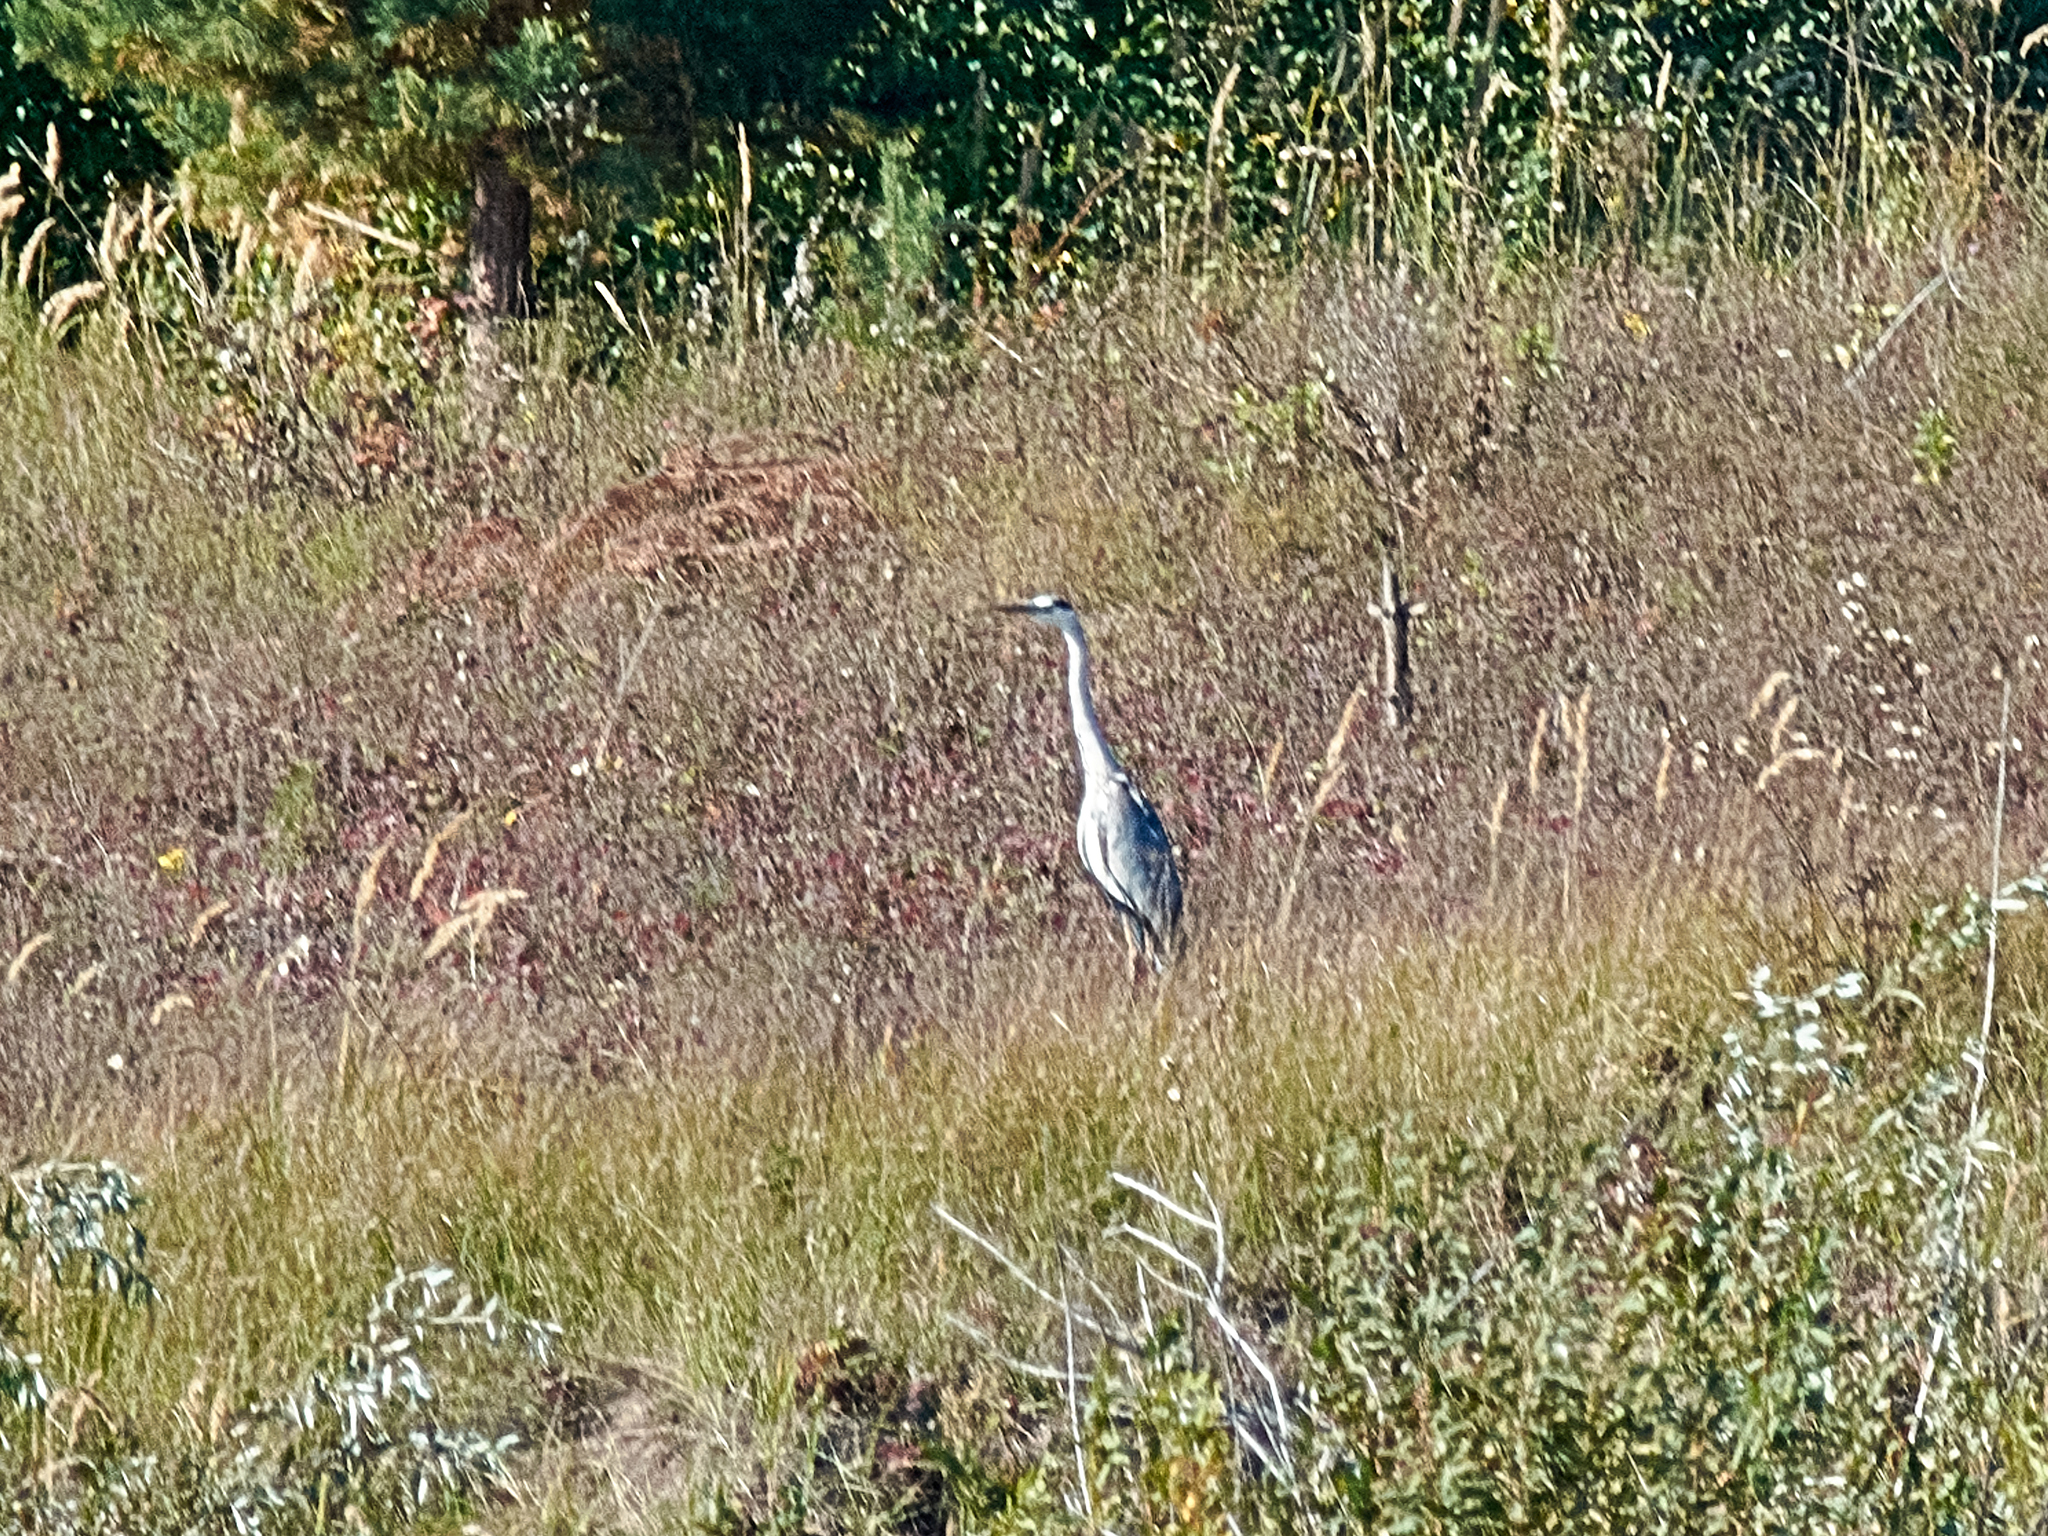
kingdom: Animalia
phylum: Chordata
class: Aves
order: Pelecaniformes
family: Ardeidae
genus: Ardea
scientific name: Ardea cinerea
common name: Grey heron
